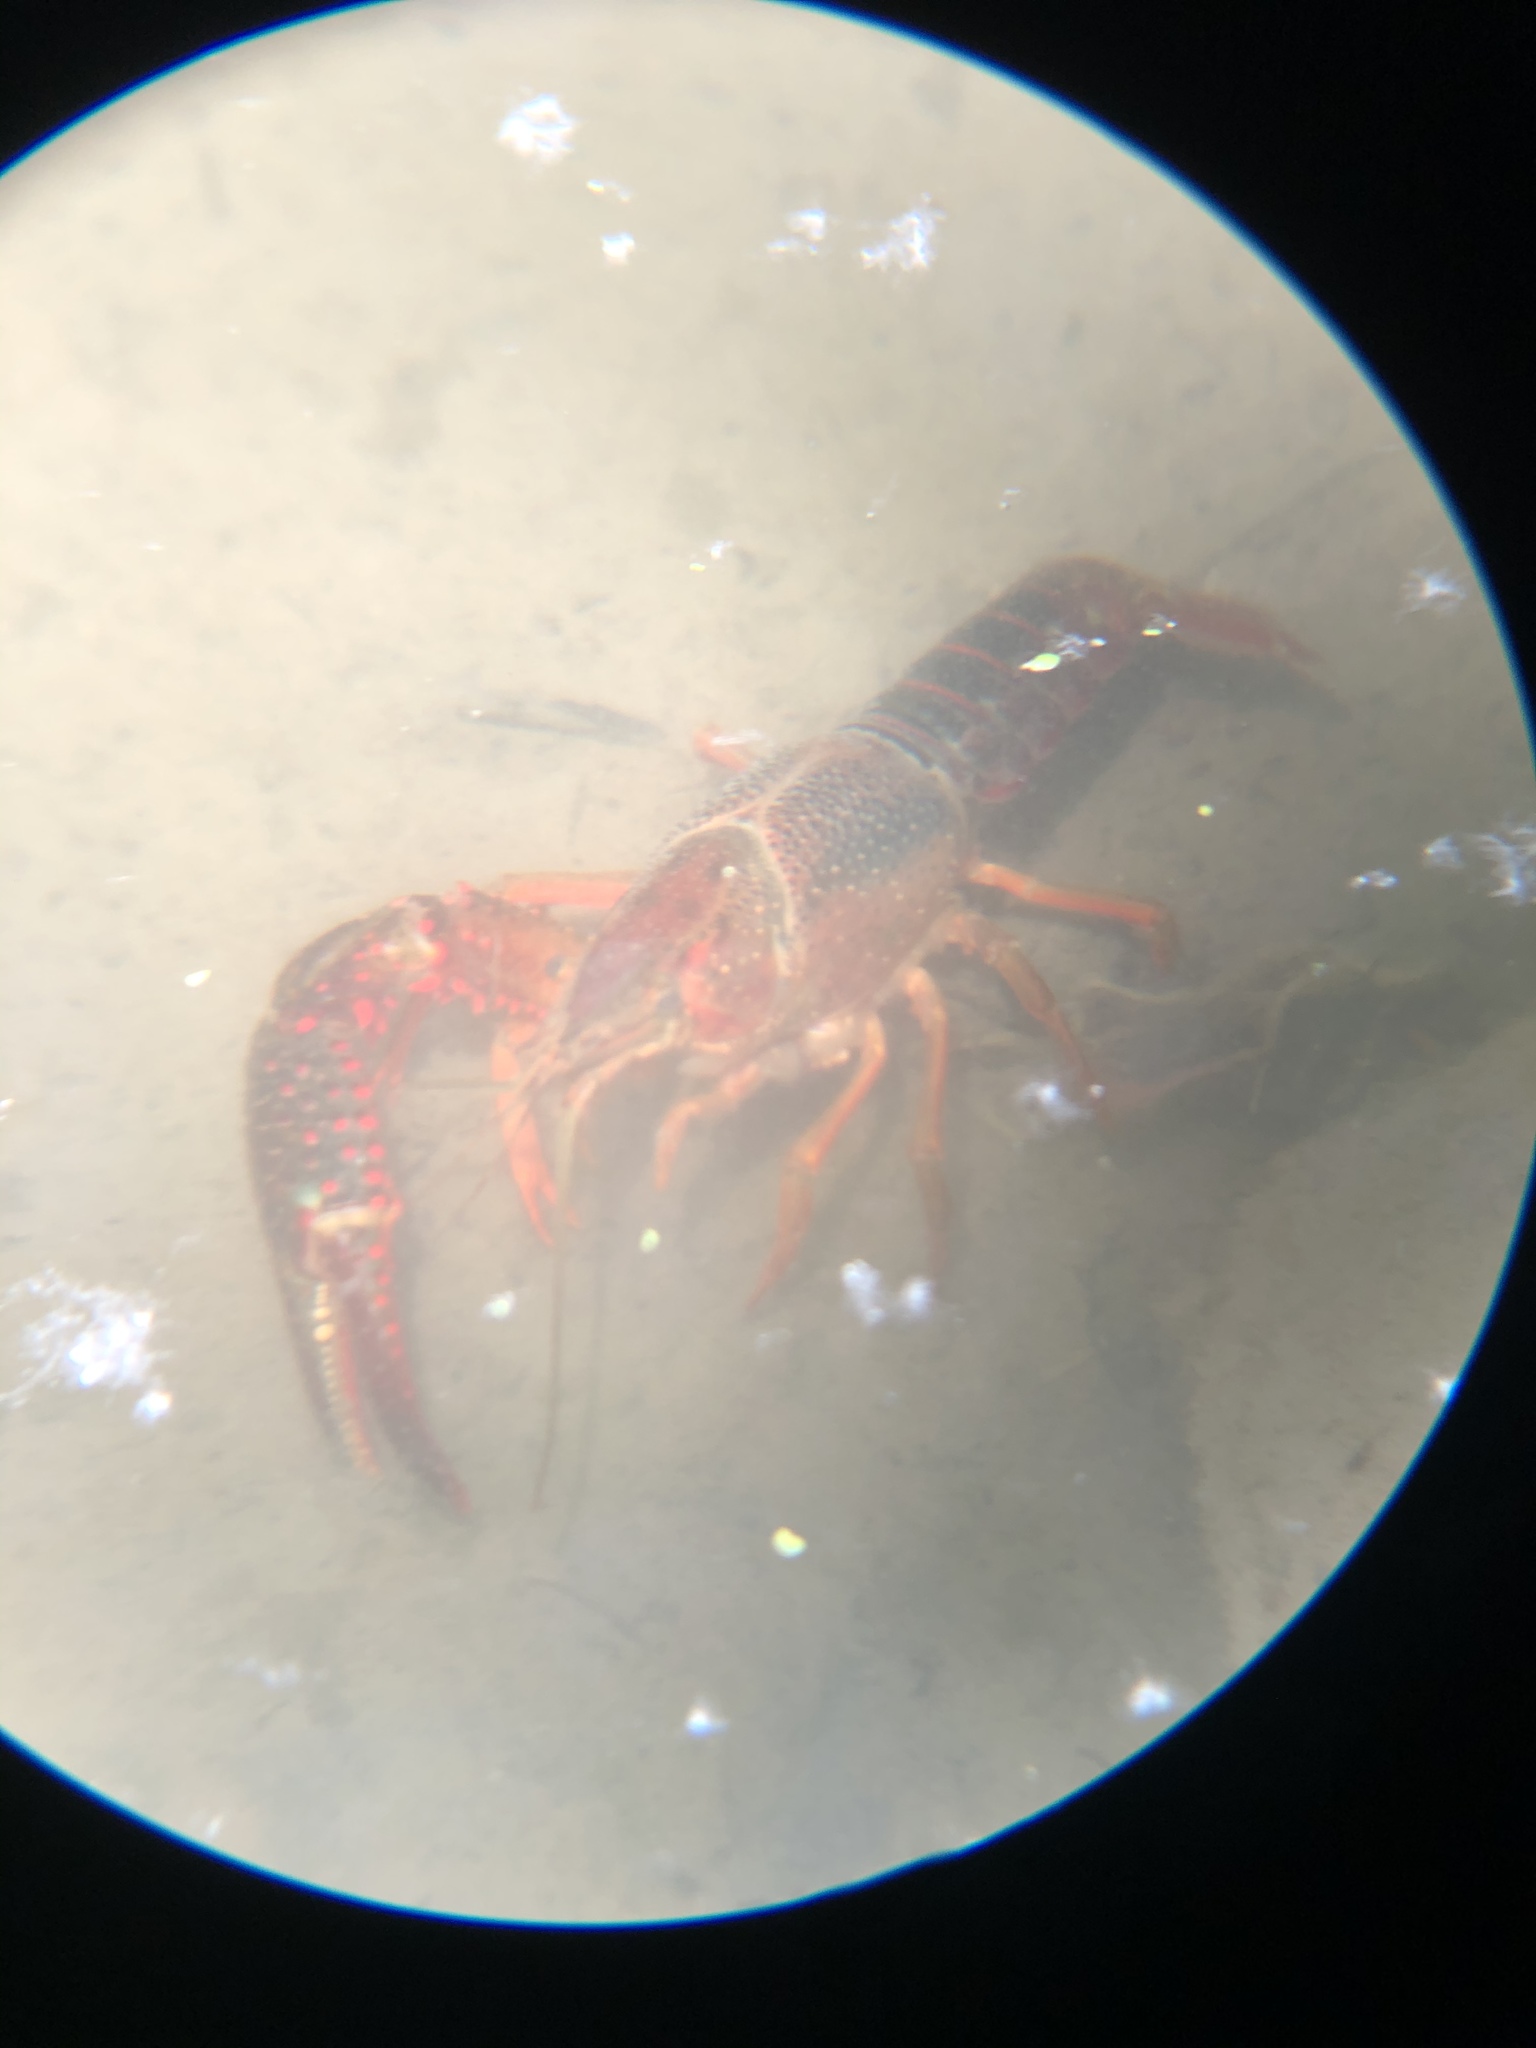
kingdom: Animalia
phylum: Arthropoda
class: Malacostraca
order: Decapoda
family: Cambaridae
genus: Procambarus
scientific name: Procambarus clarkii
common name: Red swamp crayfish
